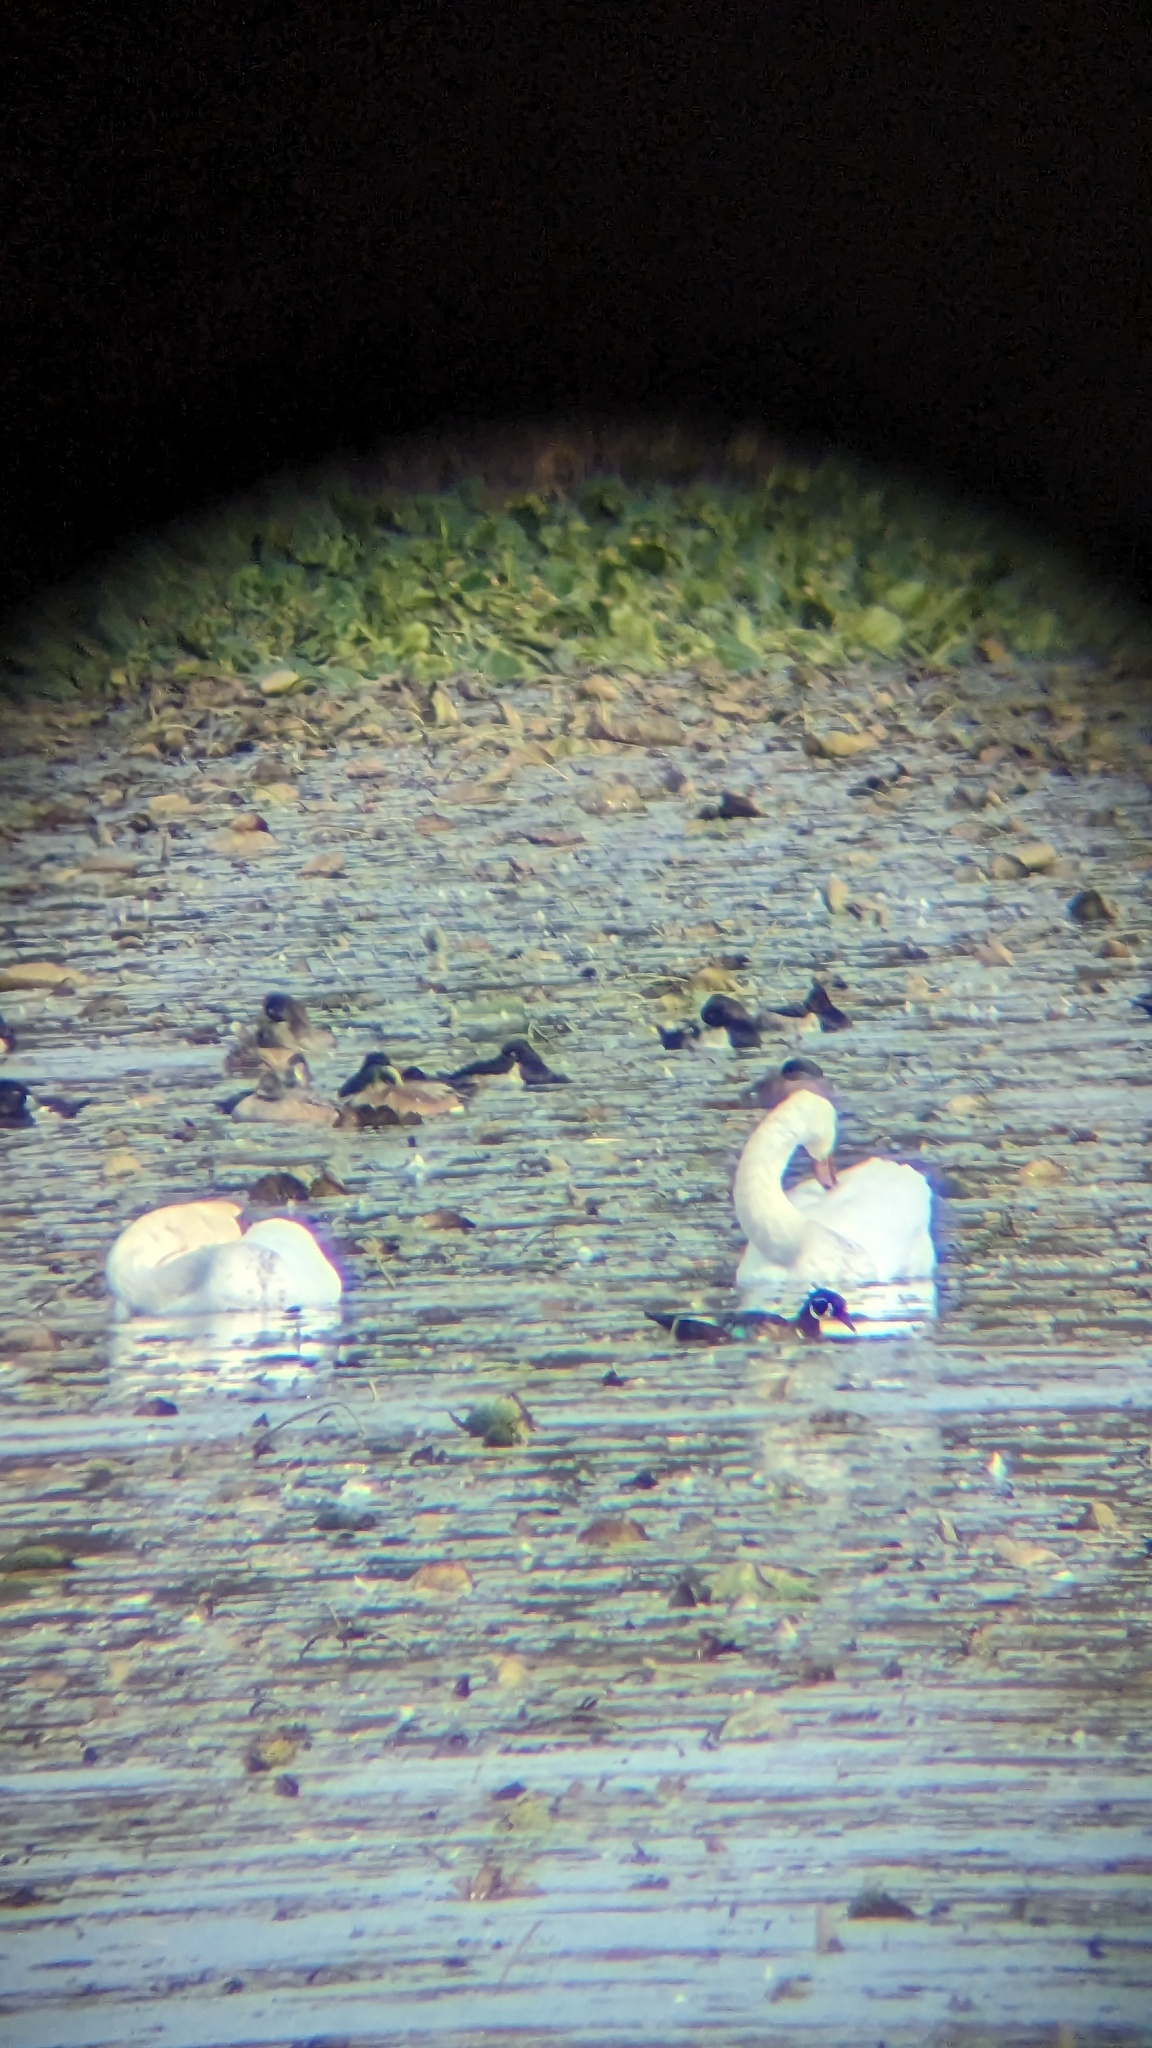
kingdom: Animalia
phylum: Chordata
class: Aves
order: Anseriformes
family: Anatidae
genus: Cygnus
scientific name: Cygnus olor
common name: Mute swan
